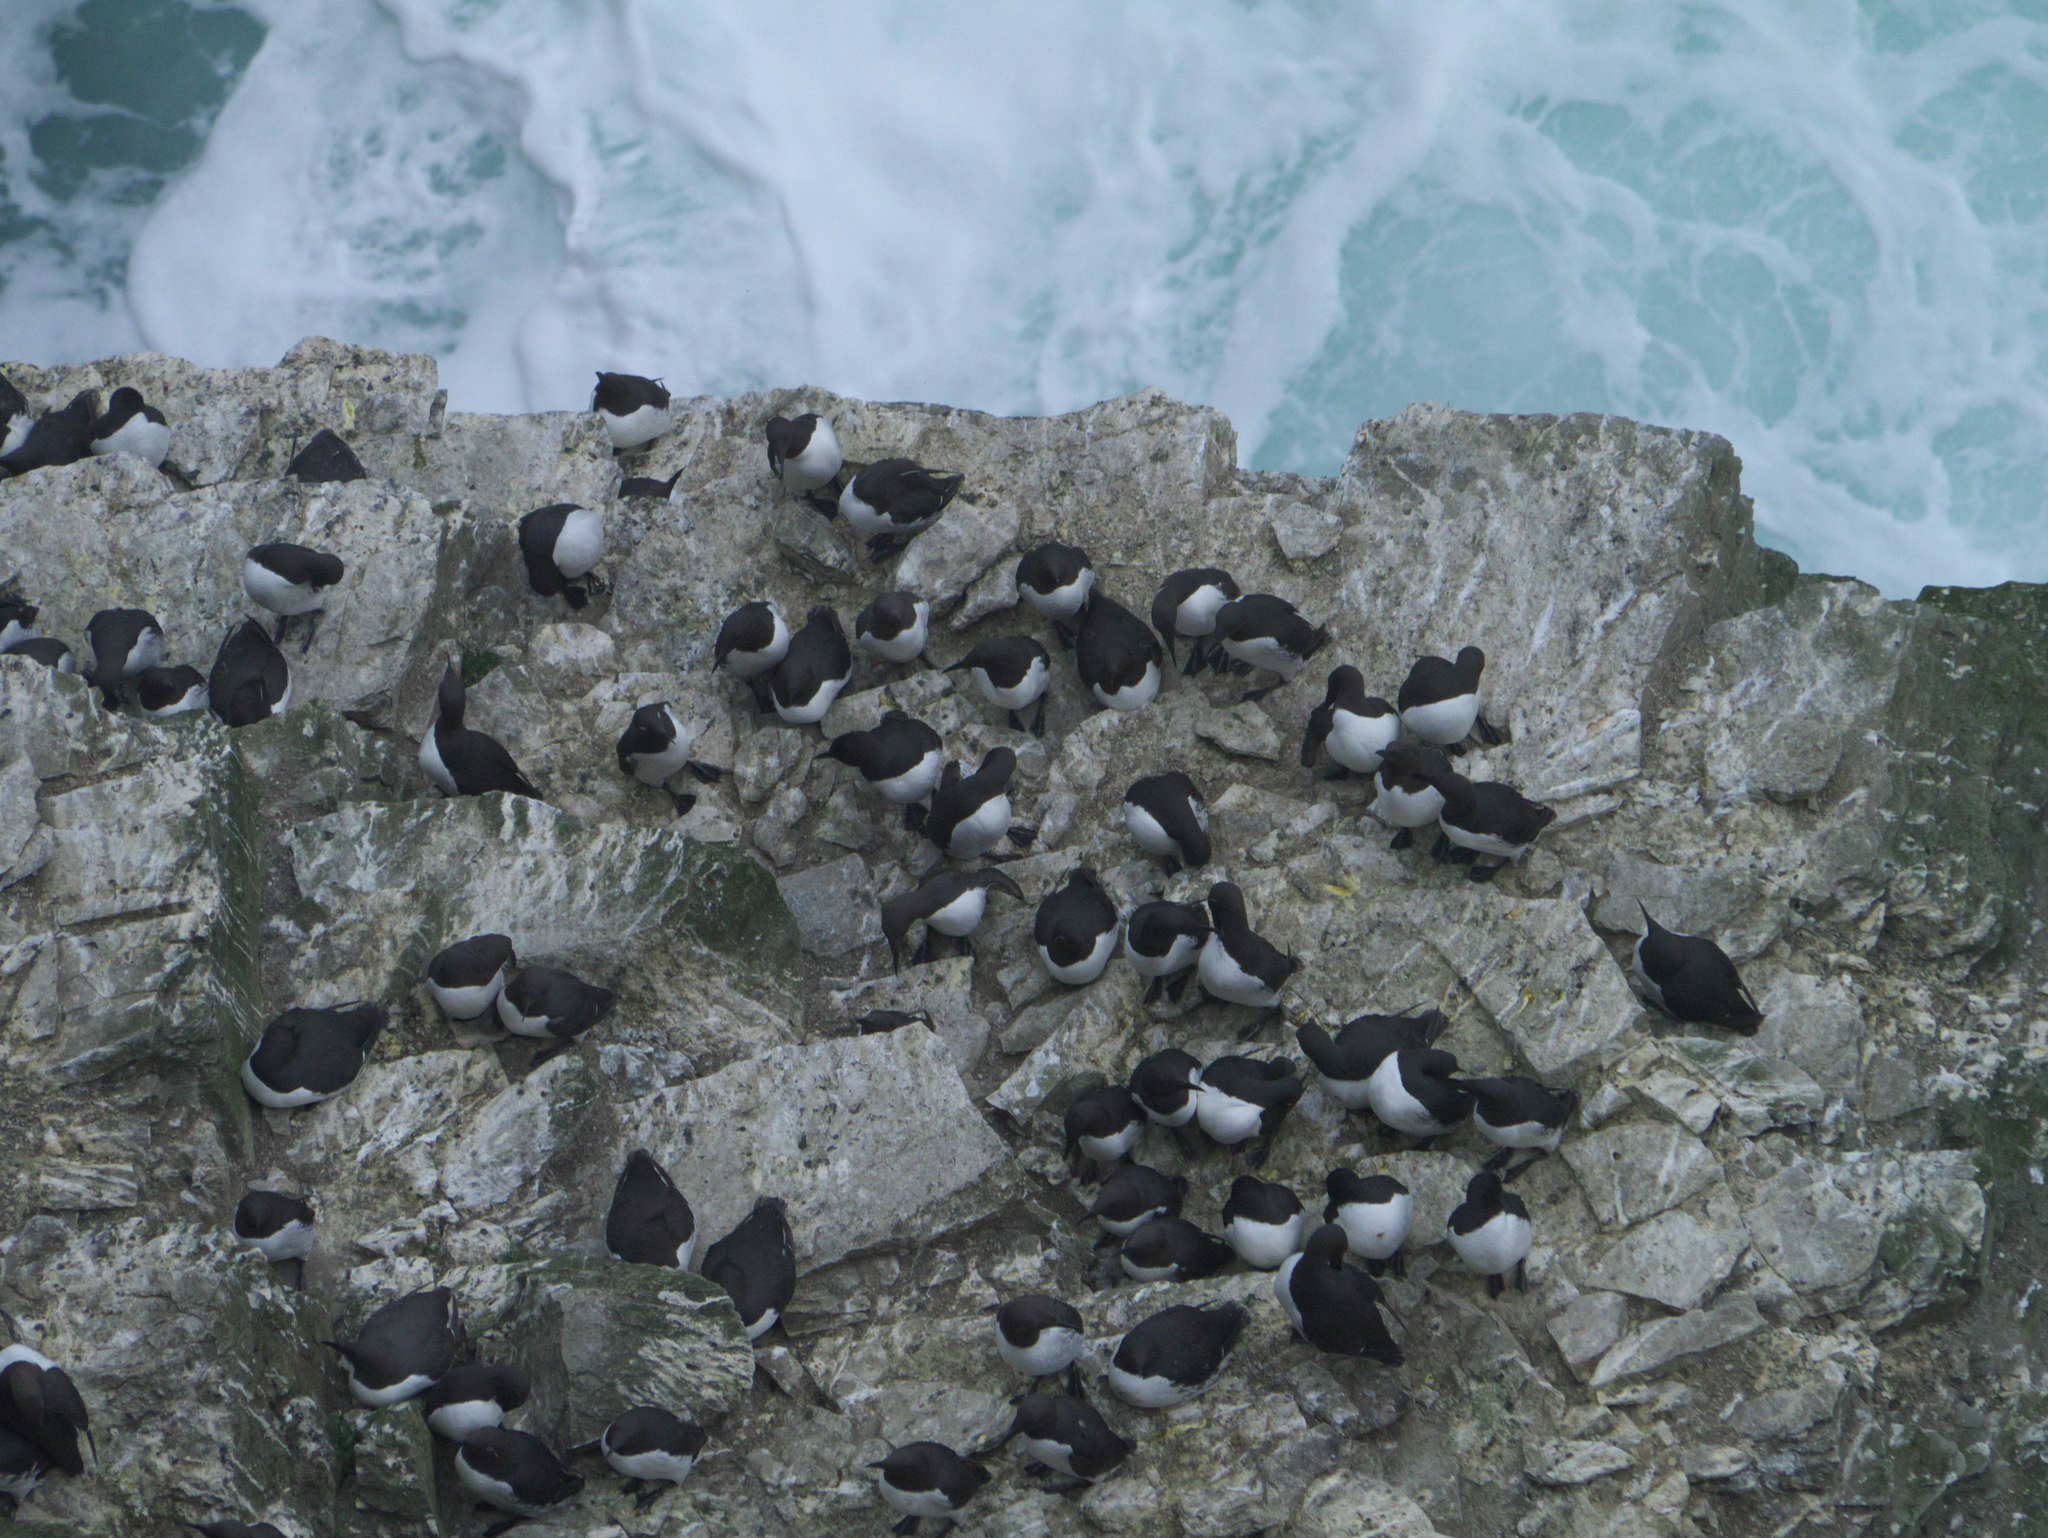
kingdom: Animalia
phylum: Chordata
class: Aves
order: Charadriiformes
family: Alcidae
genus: Uria
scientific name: Uria aalge
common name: Common murre
